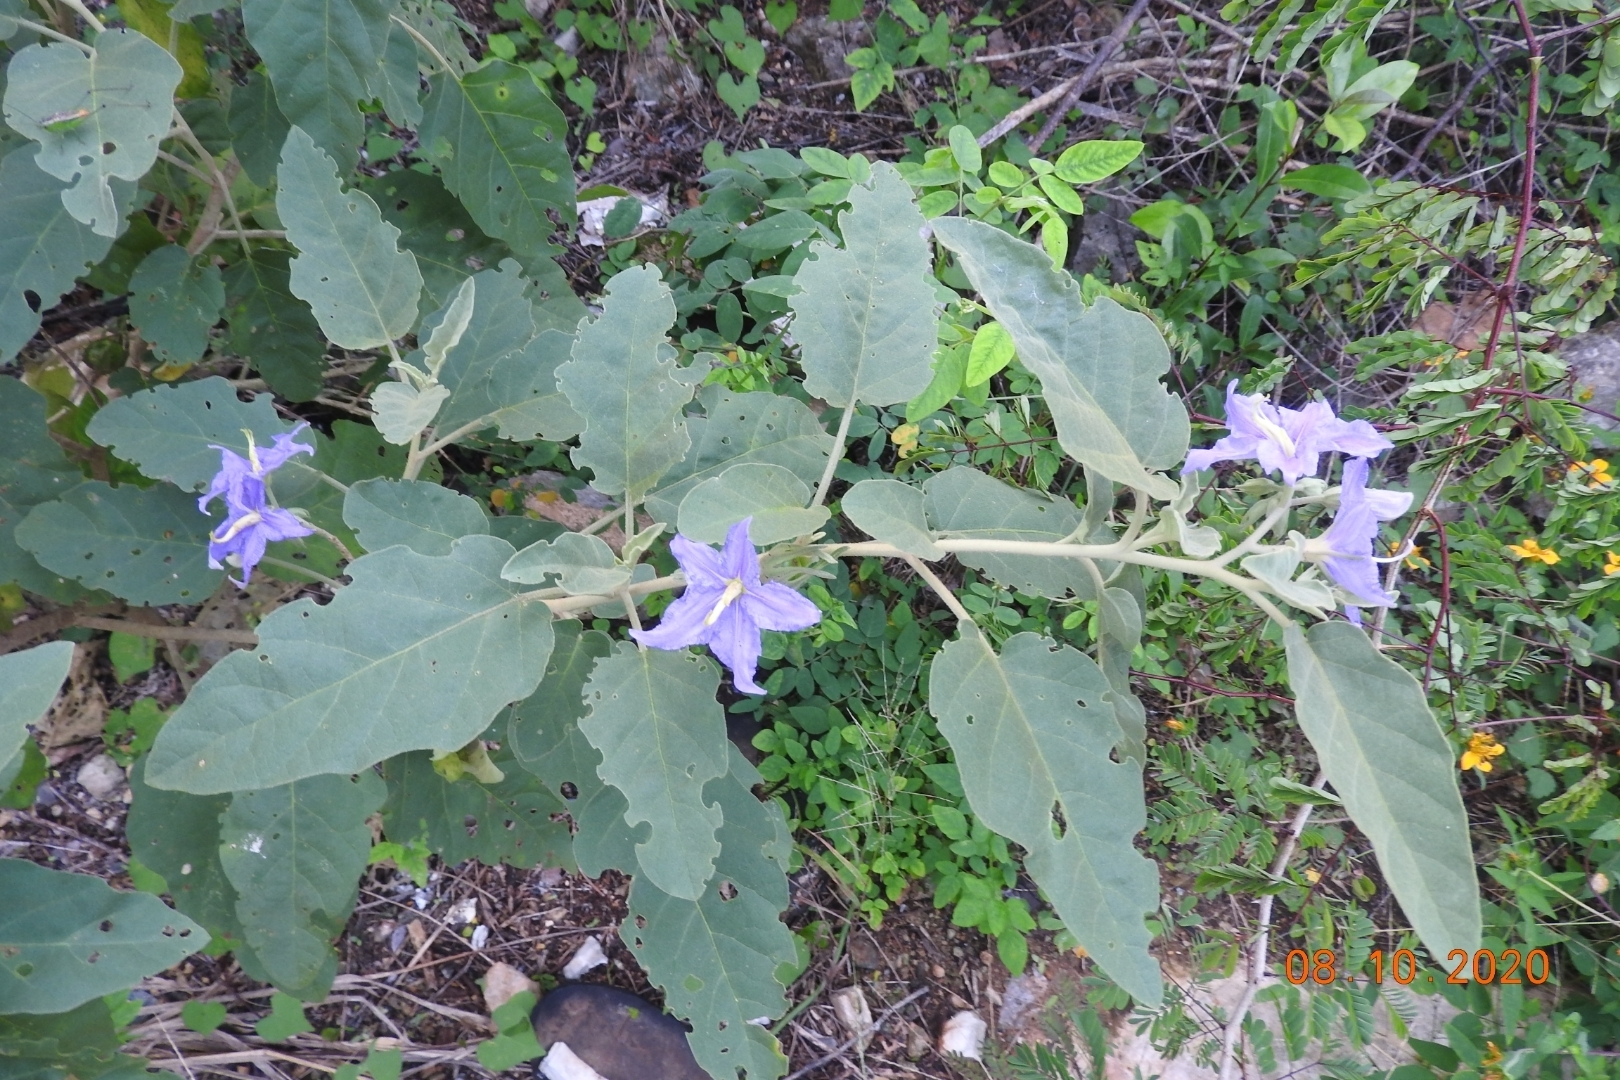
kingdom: Plantae
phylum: Tracheophyta
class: Magnoliopsida
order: Solanales
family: Solanaceae
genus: Solanum
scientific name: Solanum houstonii
